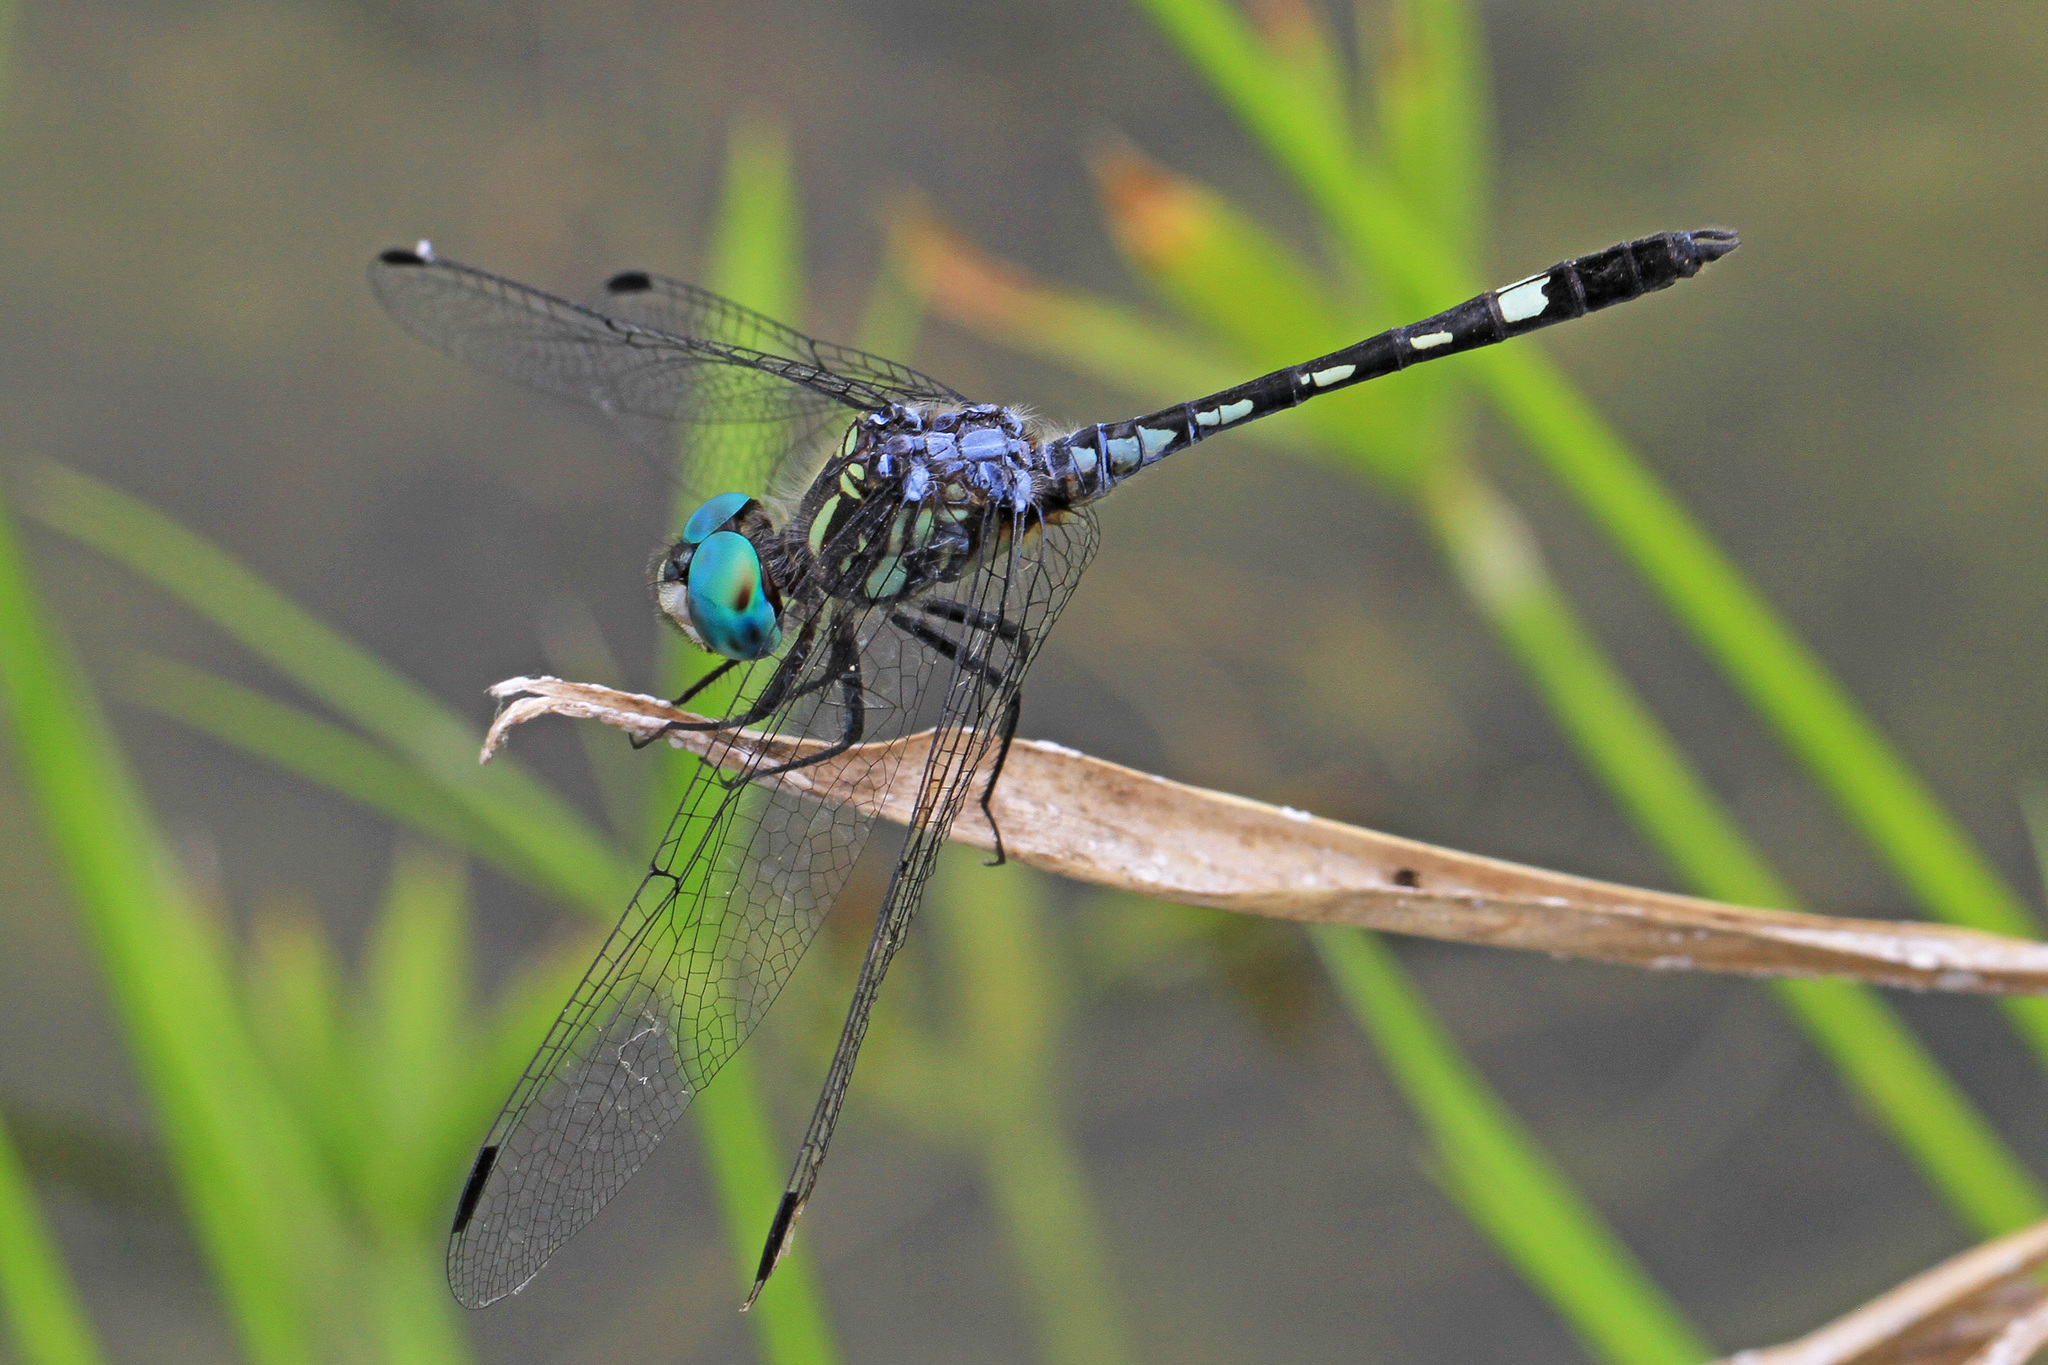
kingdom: Animalia
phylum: Arthropoda
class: Insecta
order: Odonata
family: Libellulidae
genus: Micrathyria
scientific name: Micrathyria hagenii
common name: Thornbush dasher
